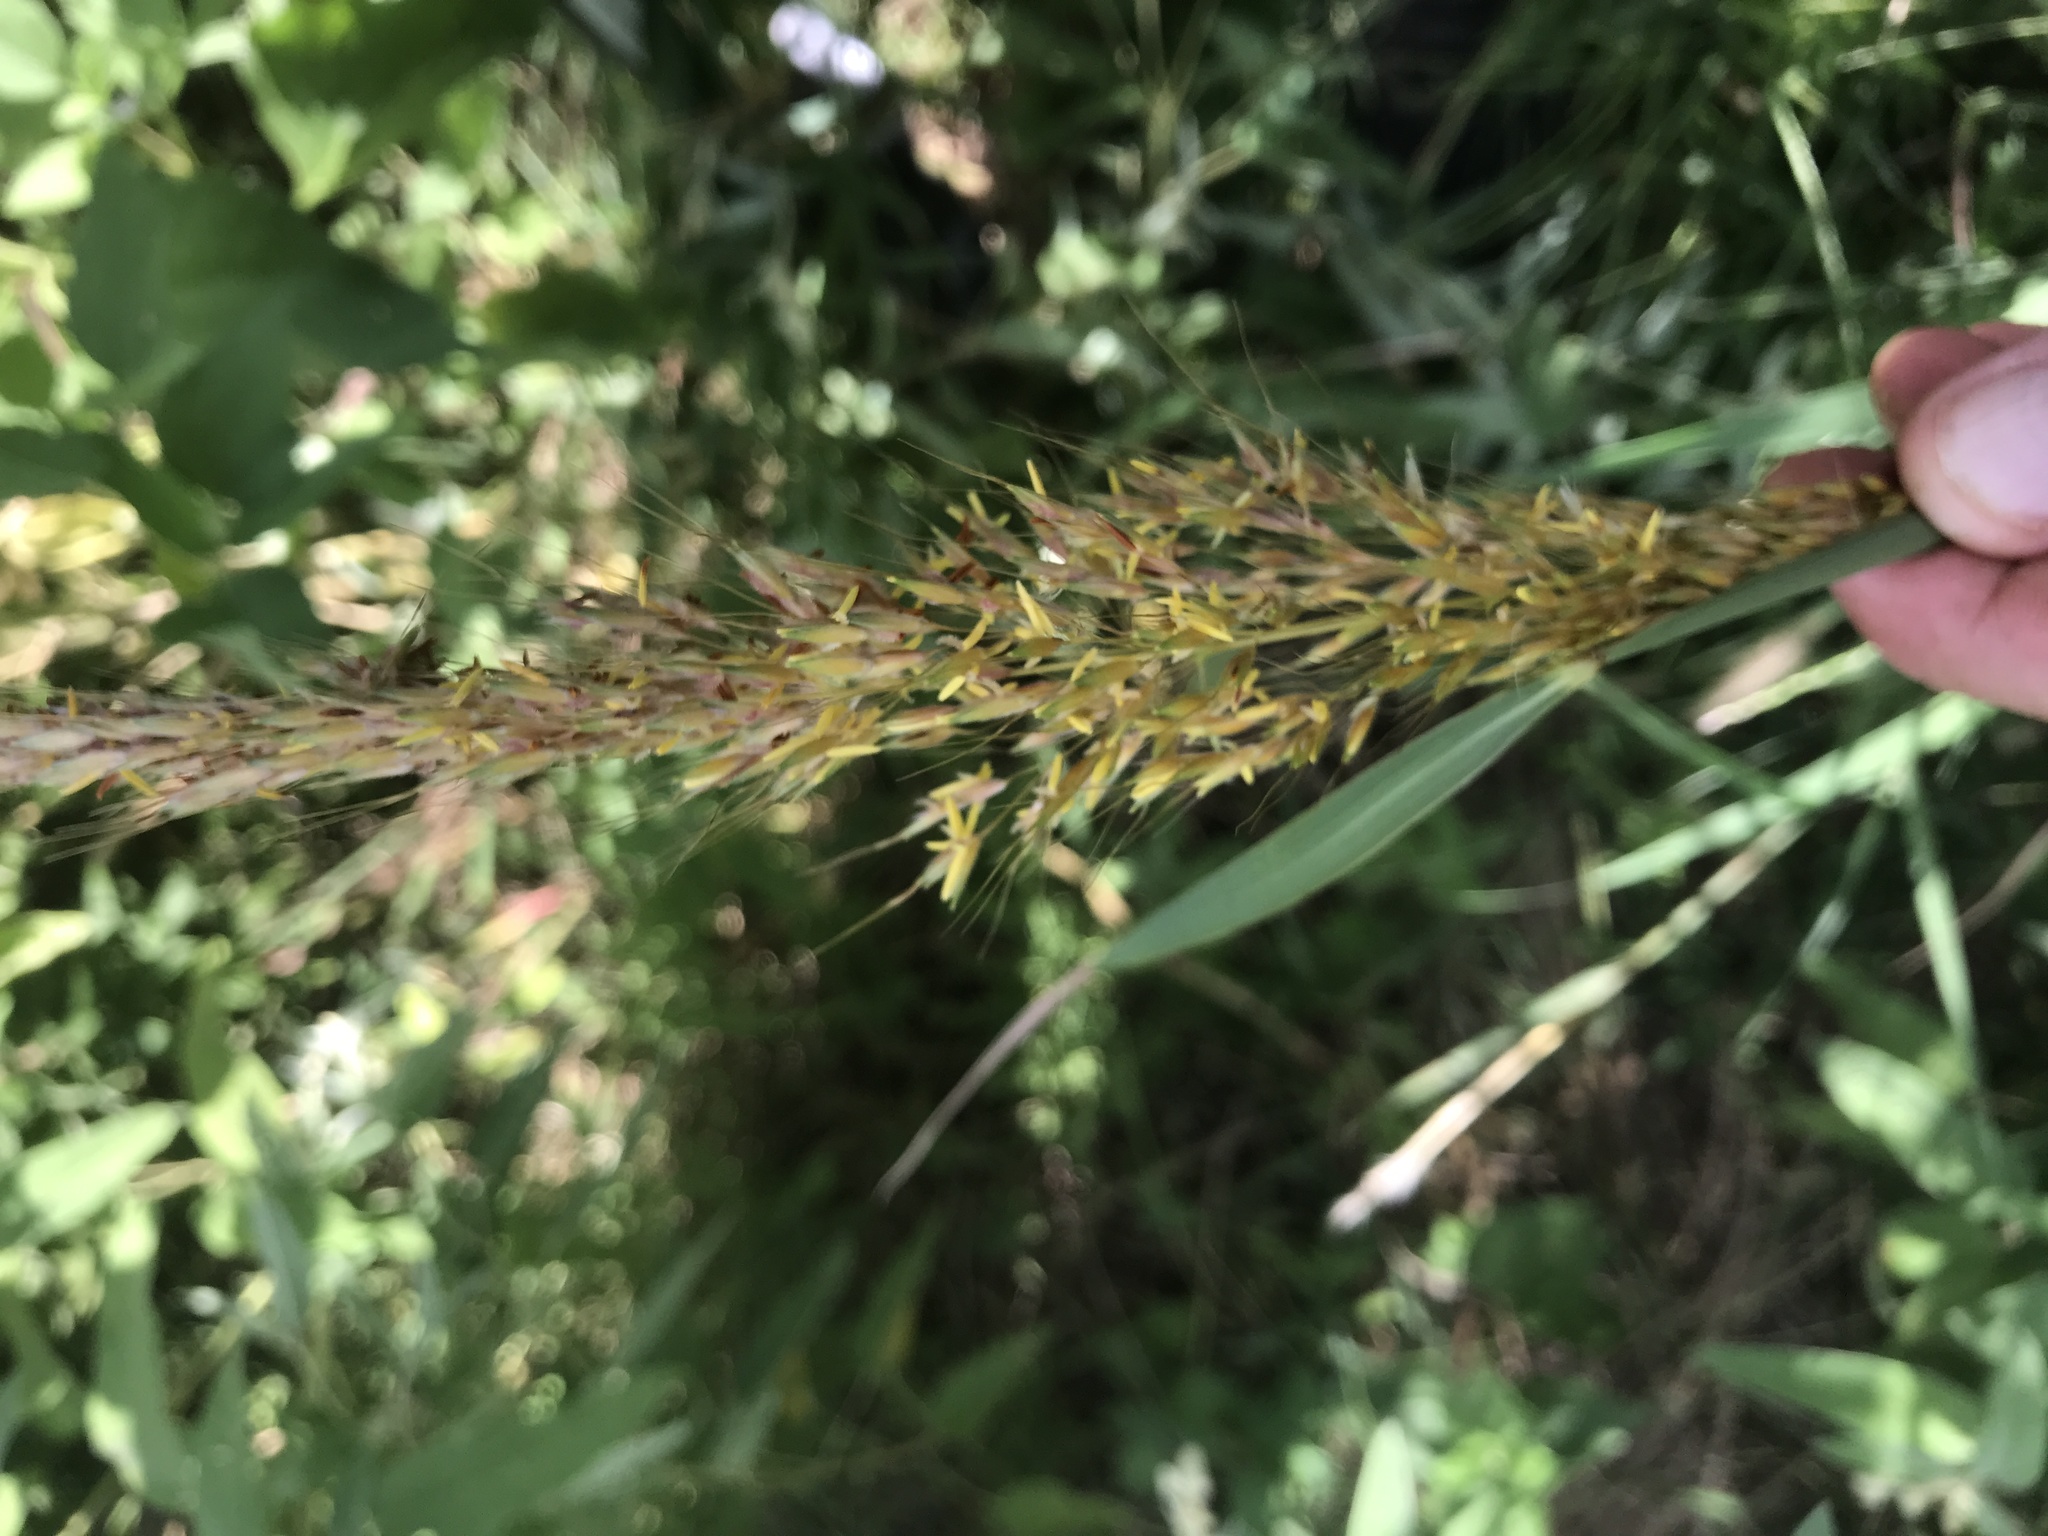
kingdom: Plantae
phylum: Tracheophyta
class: Liliopsida
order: Poales
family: Poaceae
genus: Sorghastrum
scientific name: Sorghastrum nutans
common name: Indian grass
